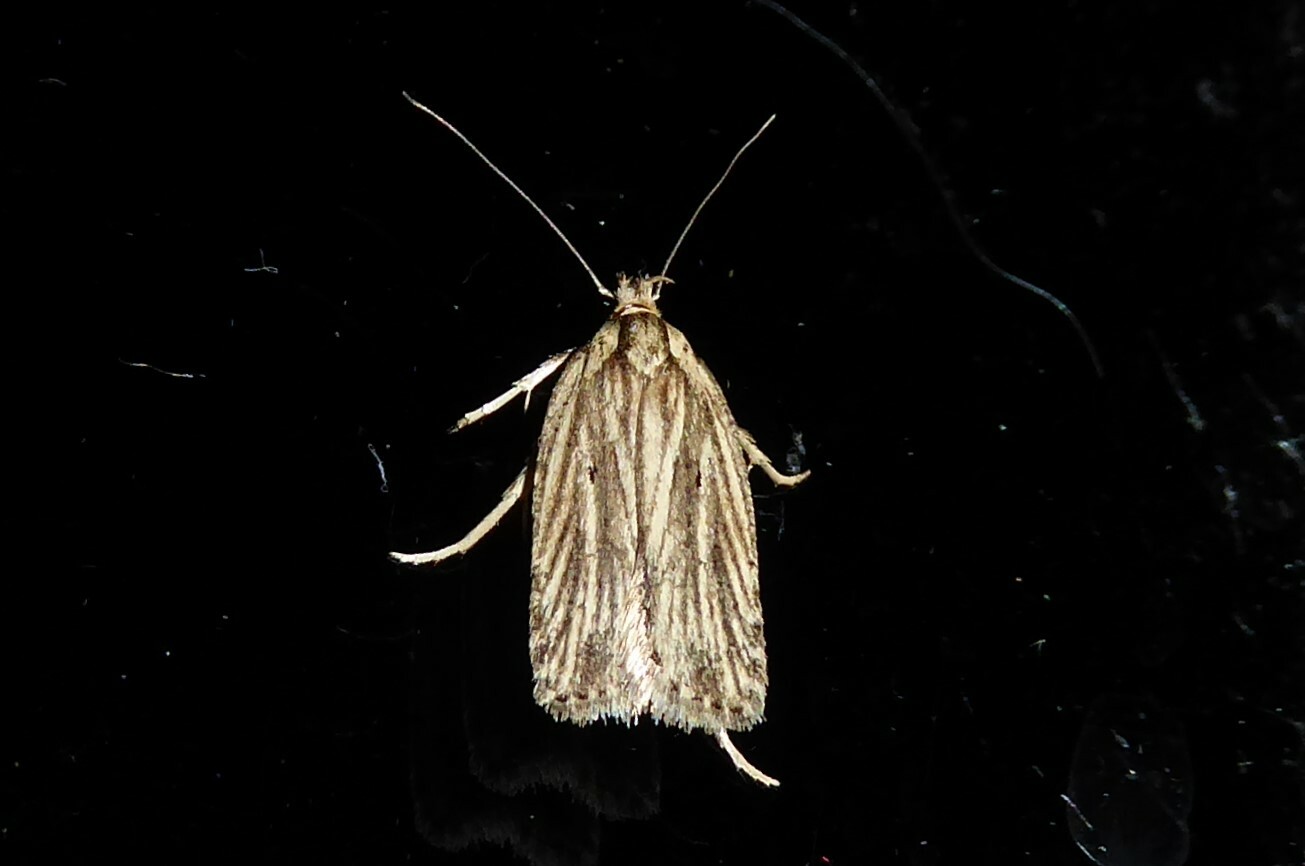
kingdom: Animalia
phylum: Arthropoda
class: Insecta
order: Lepidoptera
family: Depressariidae
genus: Agonopterix
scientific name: Agonopterix
